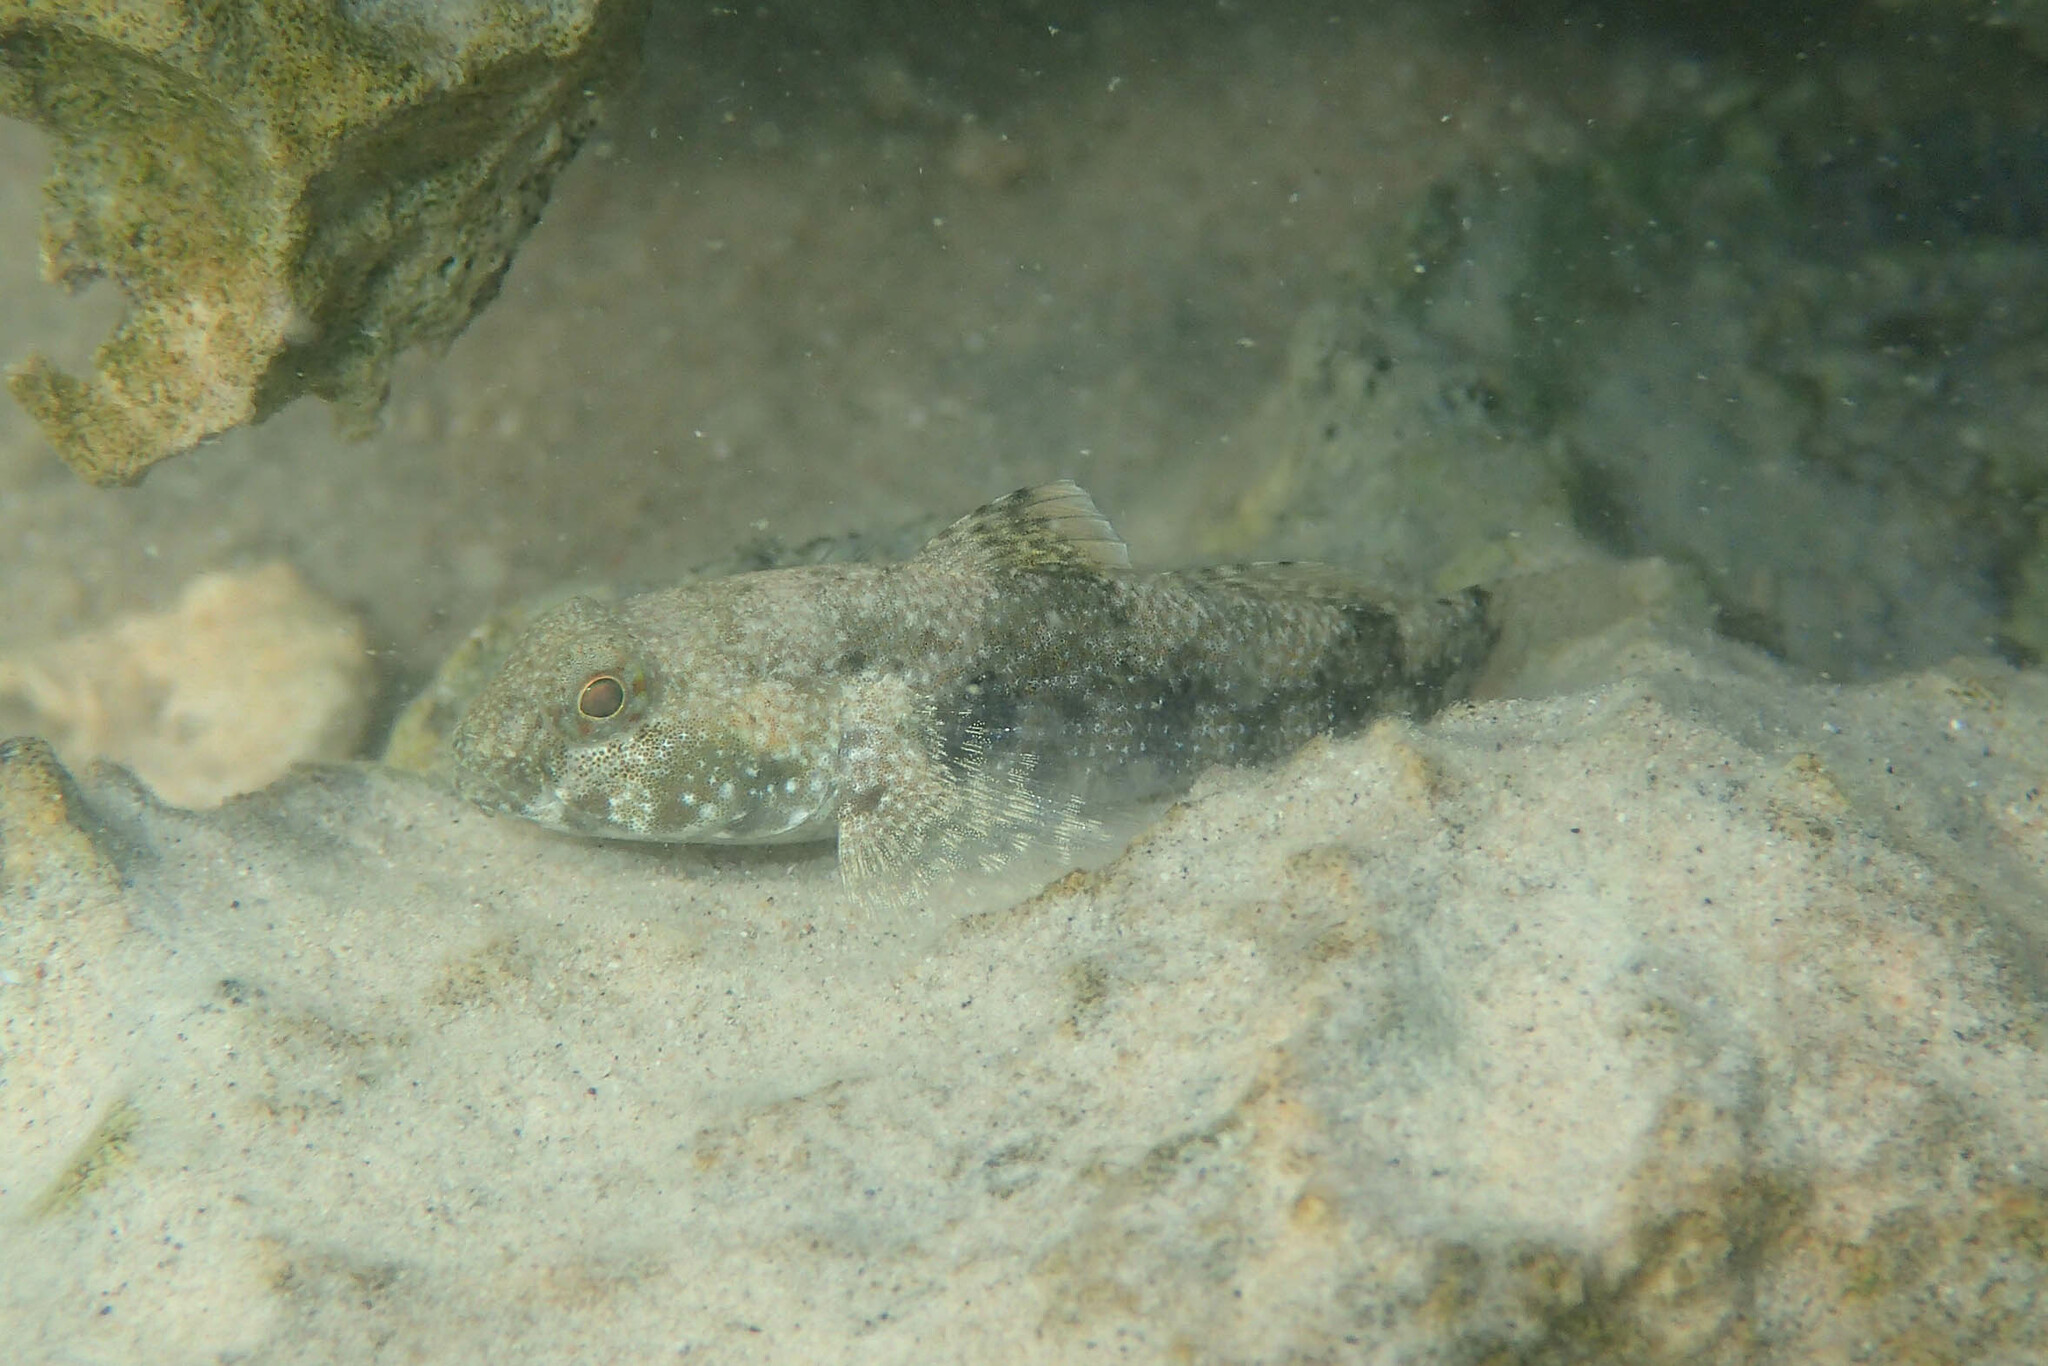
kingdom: Animalia
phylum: Chordata
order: Perciformes
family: Gobiidae
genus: Bathygobius
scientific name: Bathygobius fuscus
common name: Dusky frillgoby
